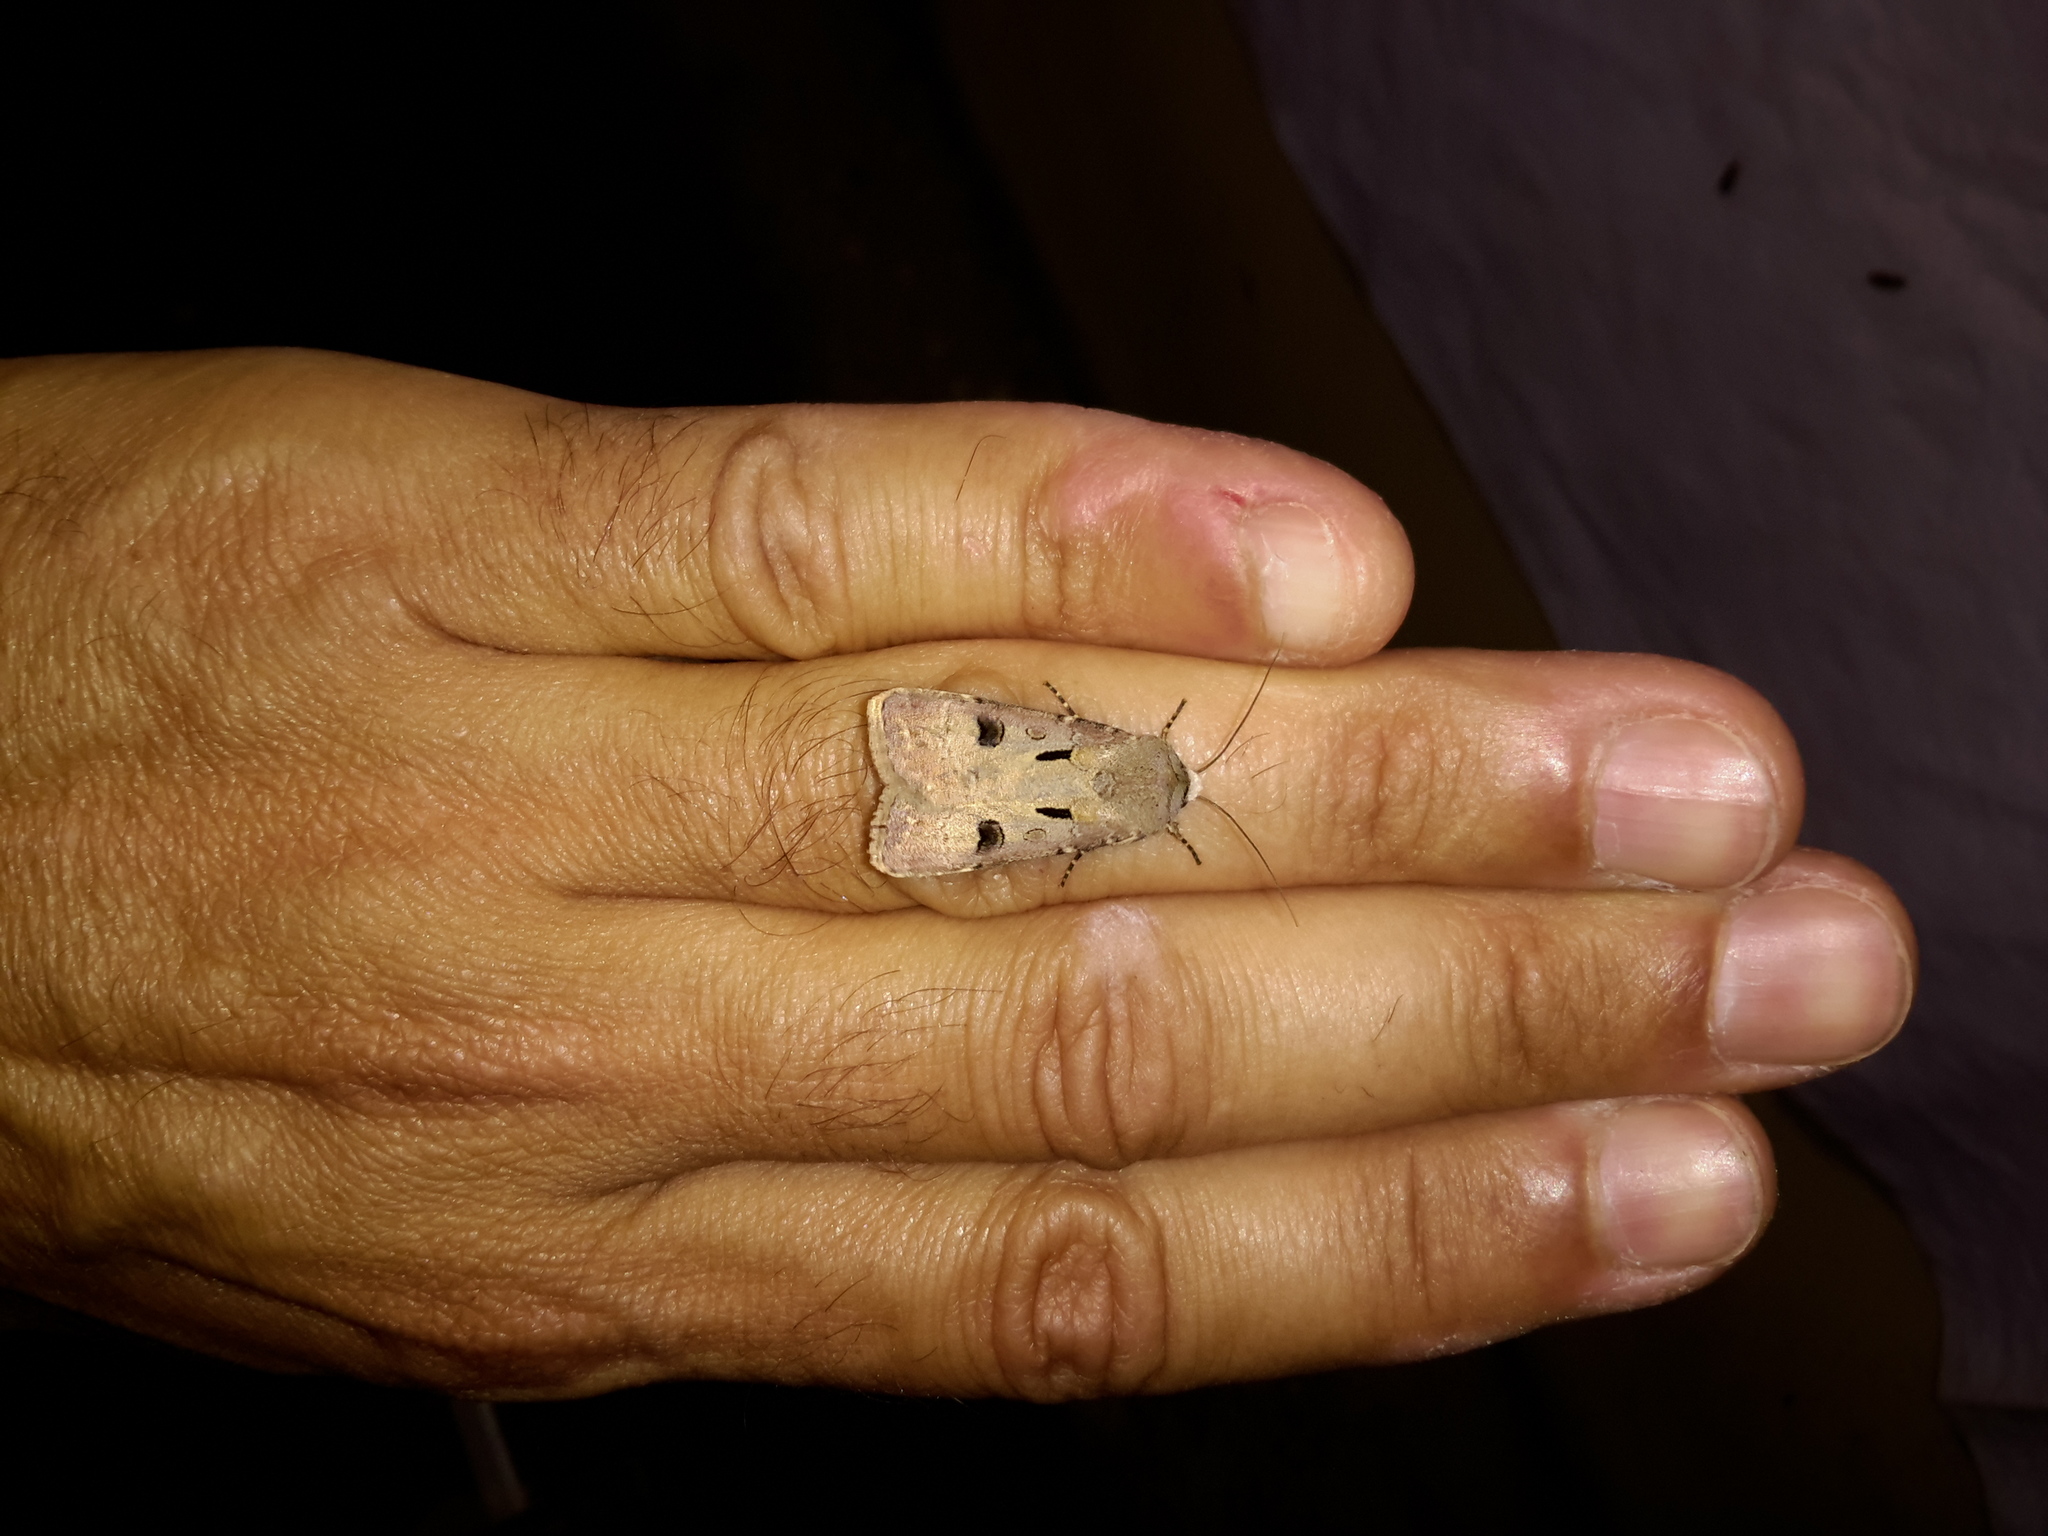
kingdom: Animalia
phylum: Arthropoda
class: Insecta
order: Lepidoptera
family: Noctuidae
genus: Agrotis
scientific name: Agrotis exclamationis
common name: Heart and dart
